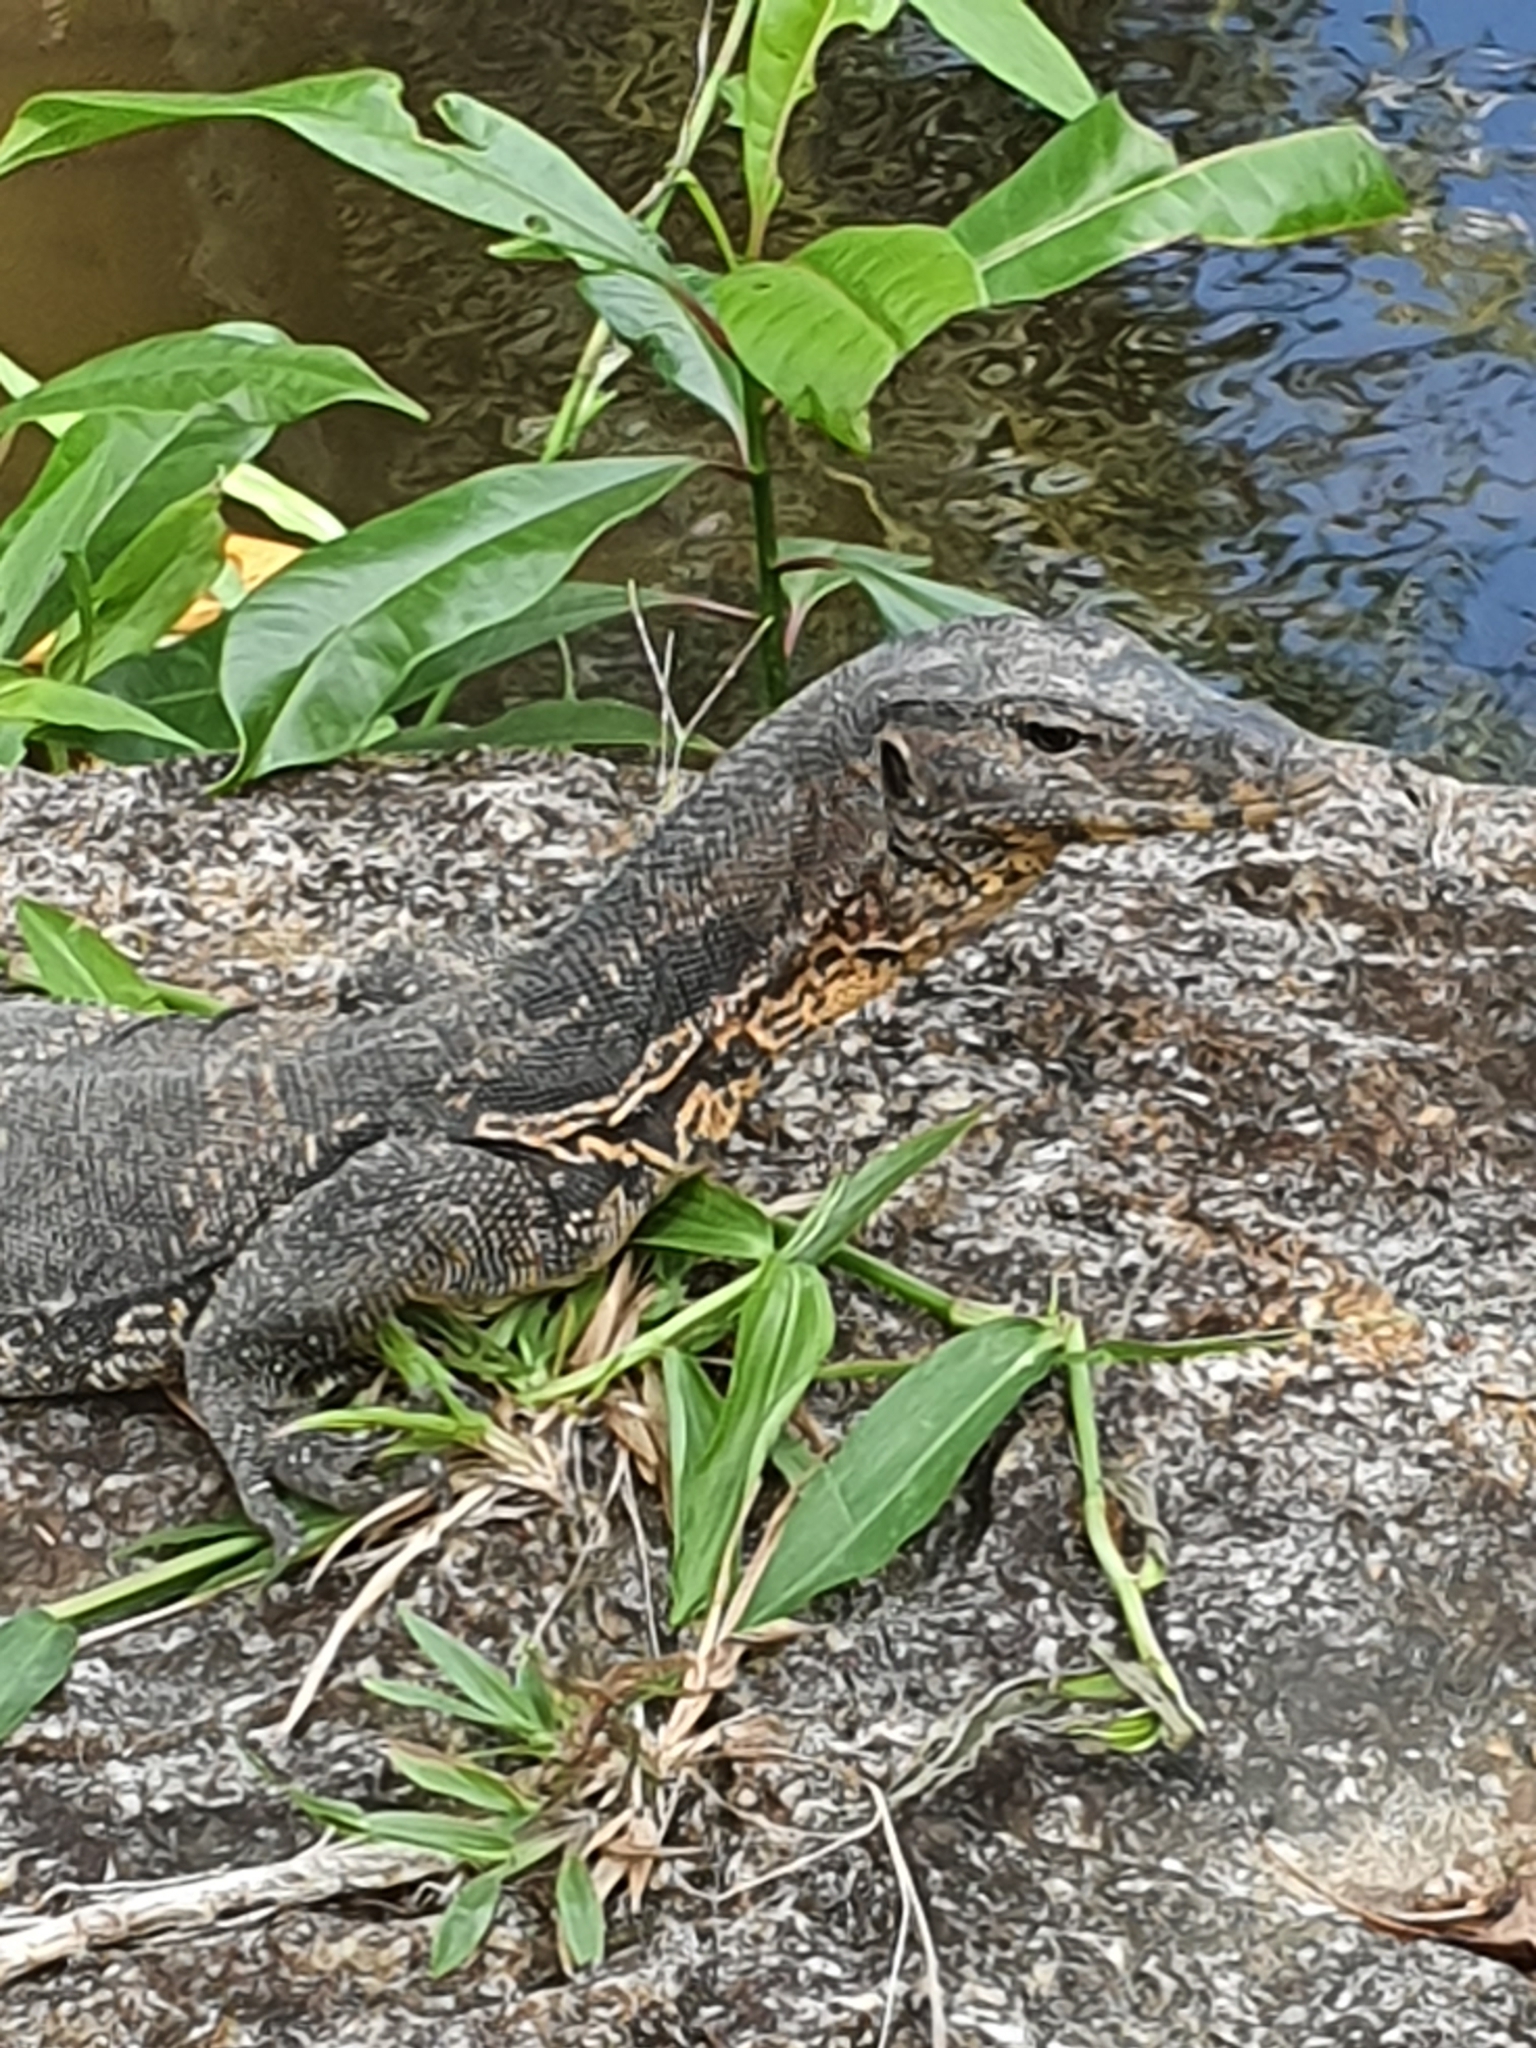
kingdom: Animalia
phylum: Chordata
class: Squamata
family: Varanidae
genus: Varanus
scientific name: Varanus salvator
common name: Common water monitor
